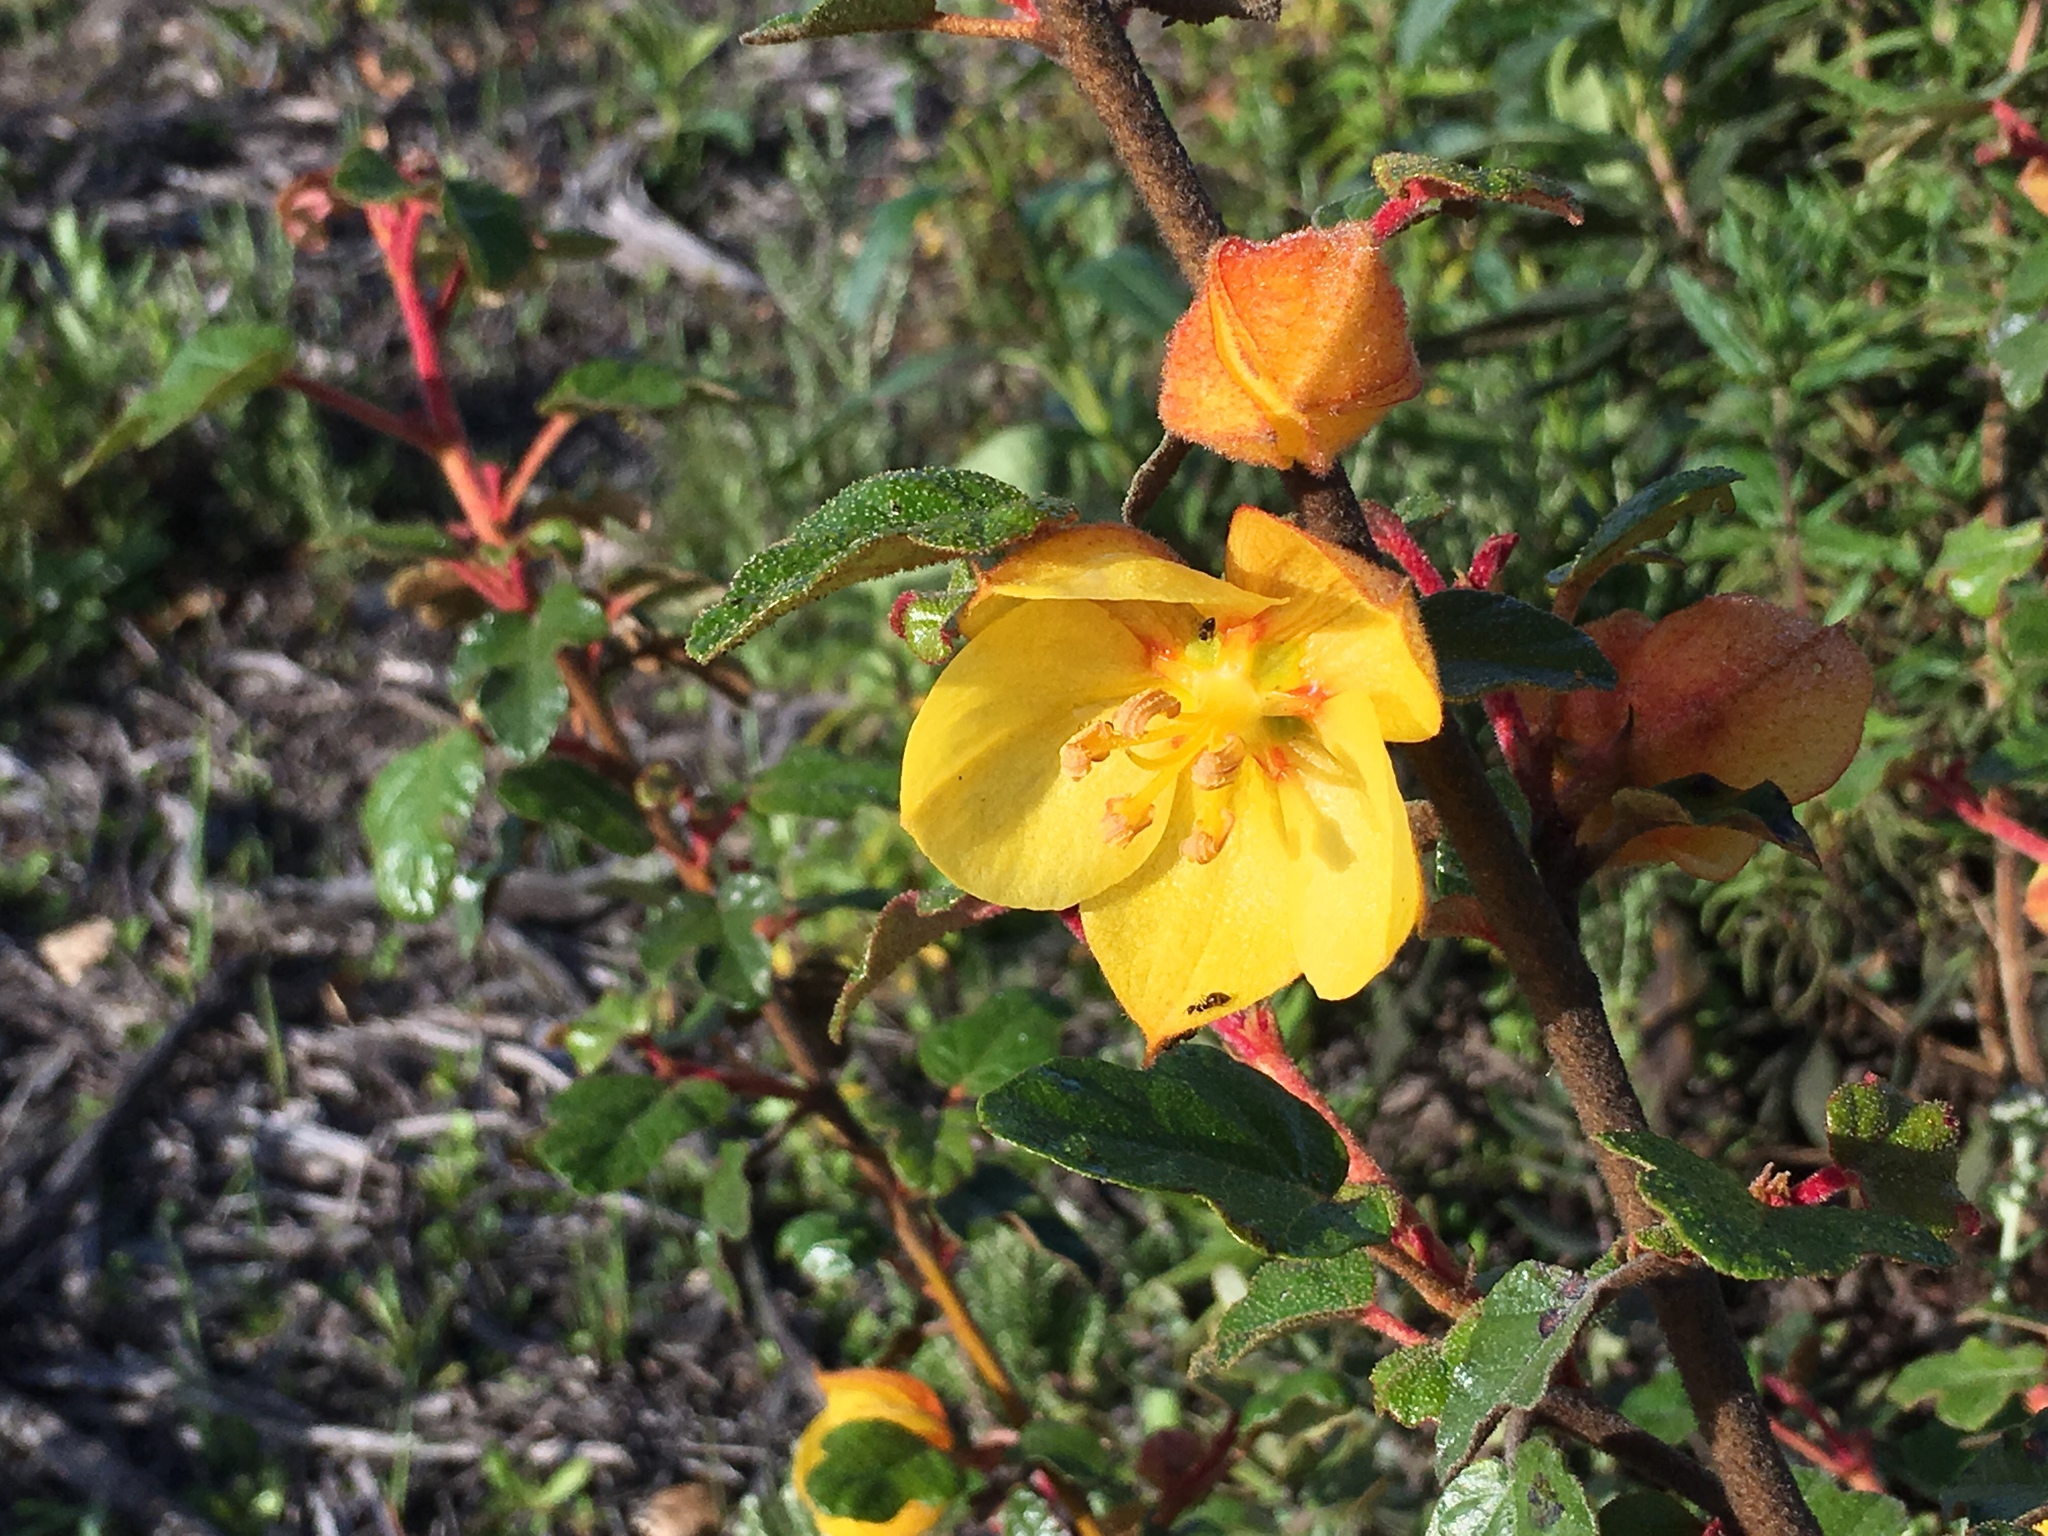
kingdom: Plantae
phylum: Tracheophyta
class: Magnoliopsida
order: Malvales
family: Malvaceae
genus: Fremontodendron
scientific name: Fremontodendron californicum
